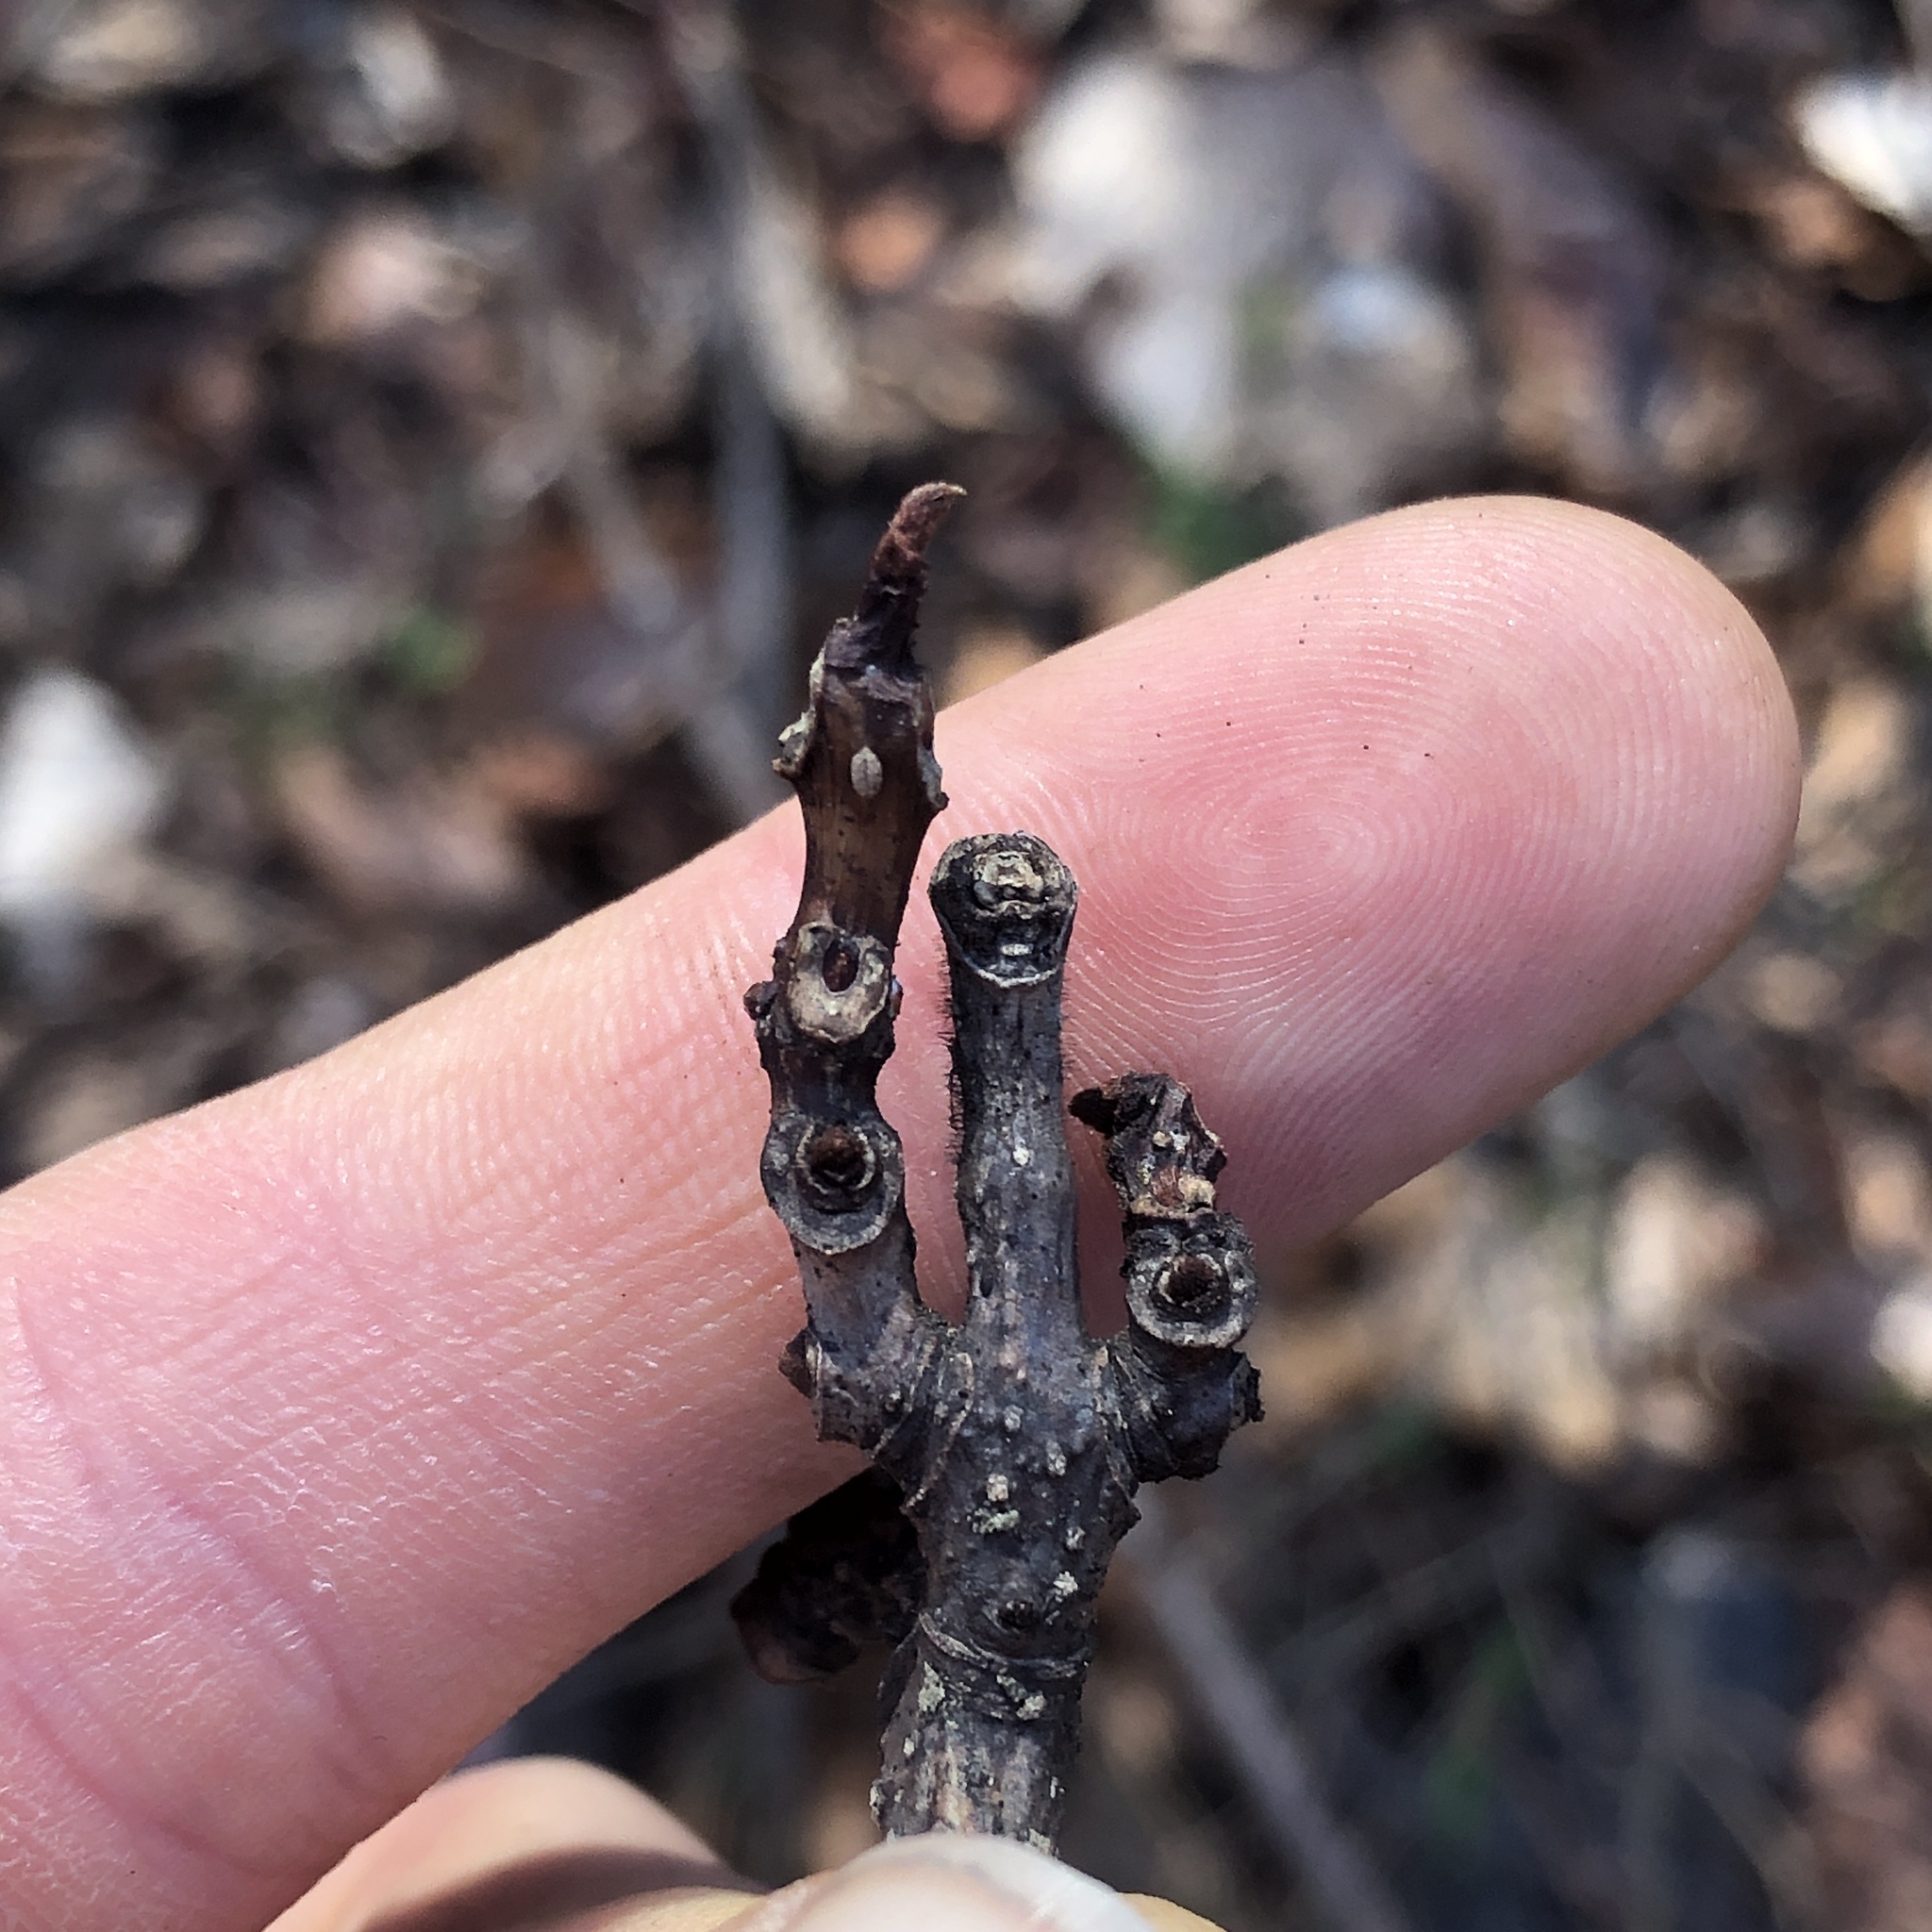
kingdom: Plantae
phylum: Tracheophyta
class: Magnoliopsida
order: Sapindales
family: Rutaceae
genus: Phellodendron
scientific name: Phellodendron amurense
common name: Amur corktree
